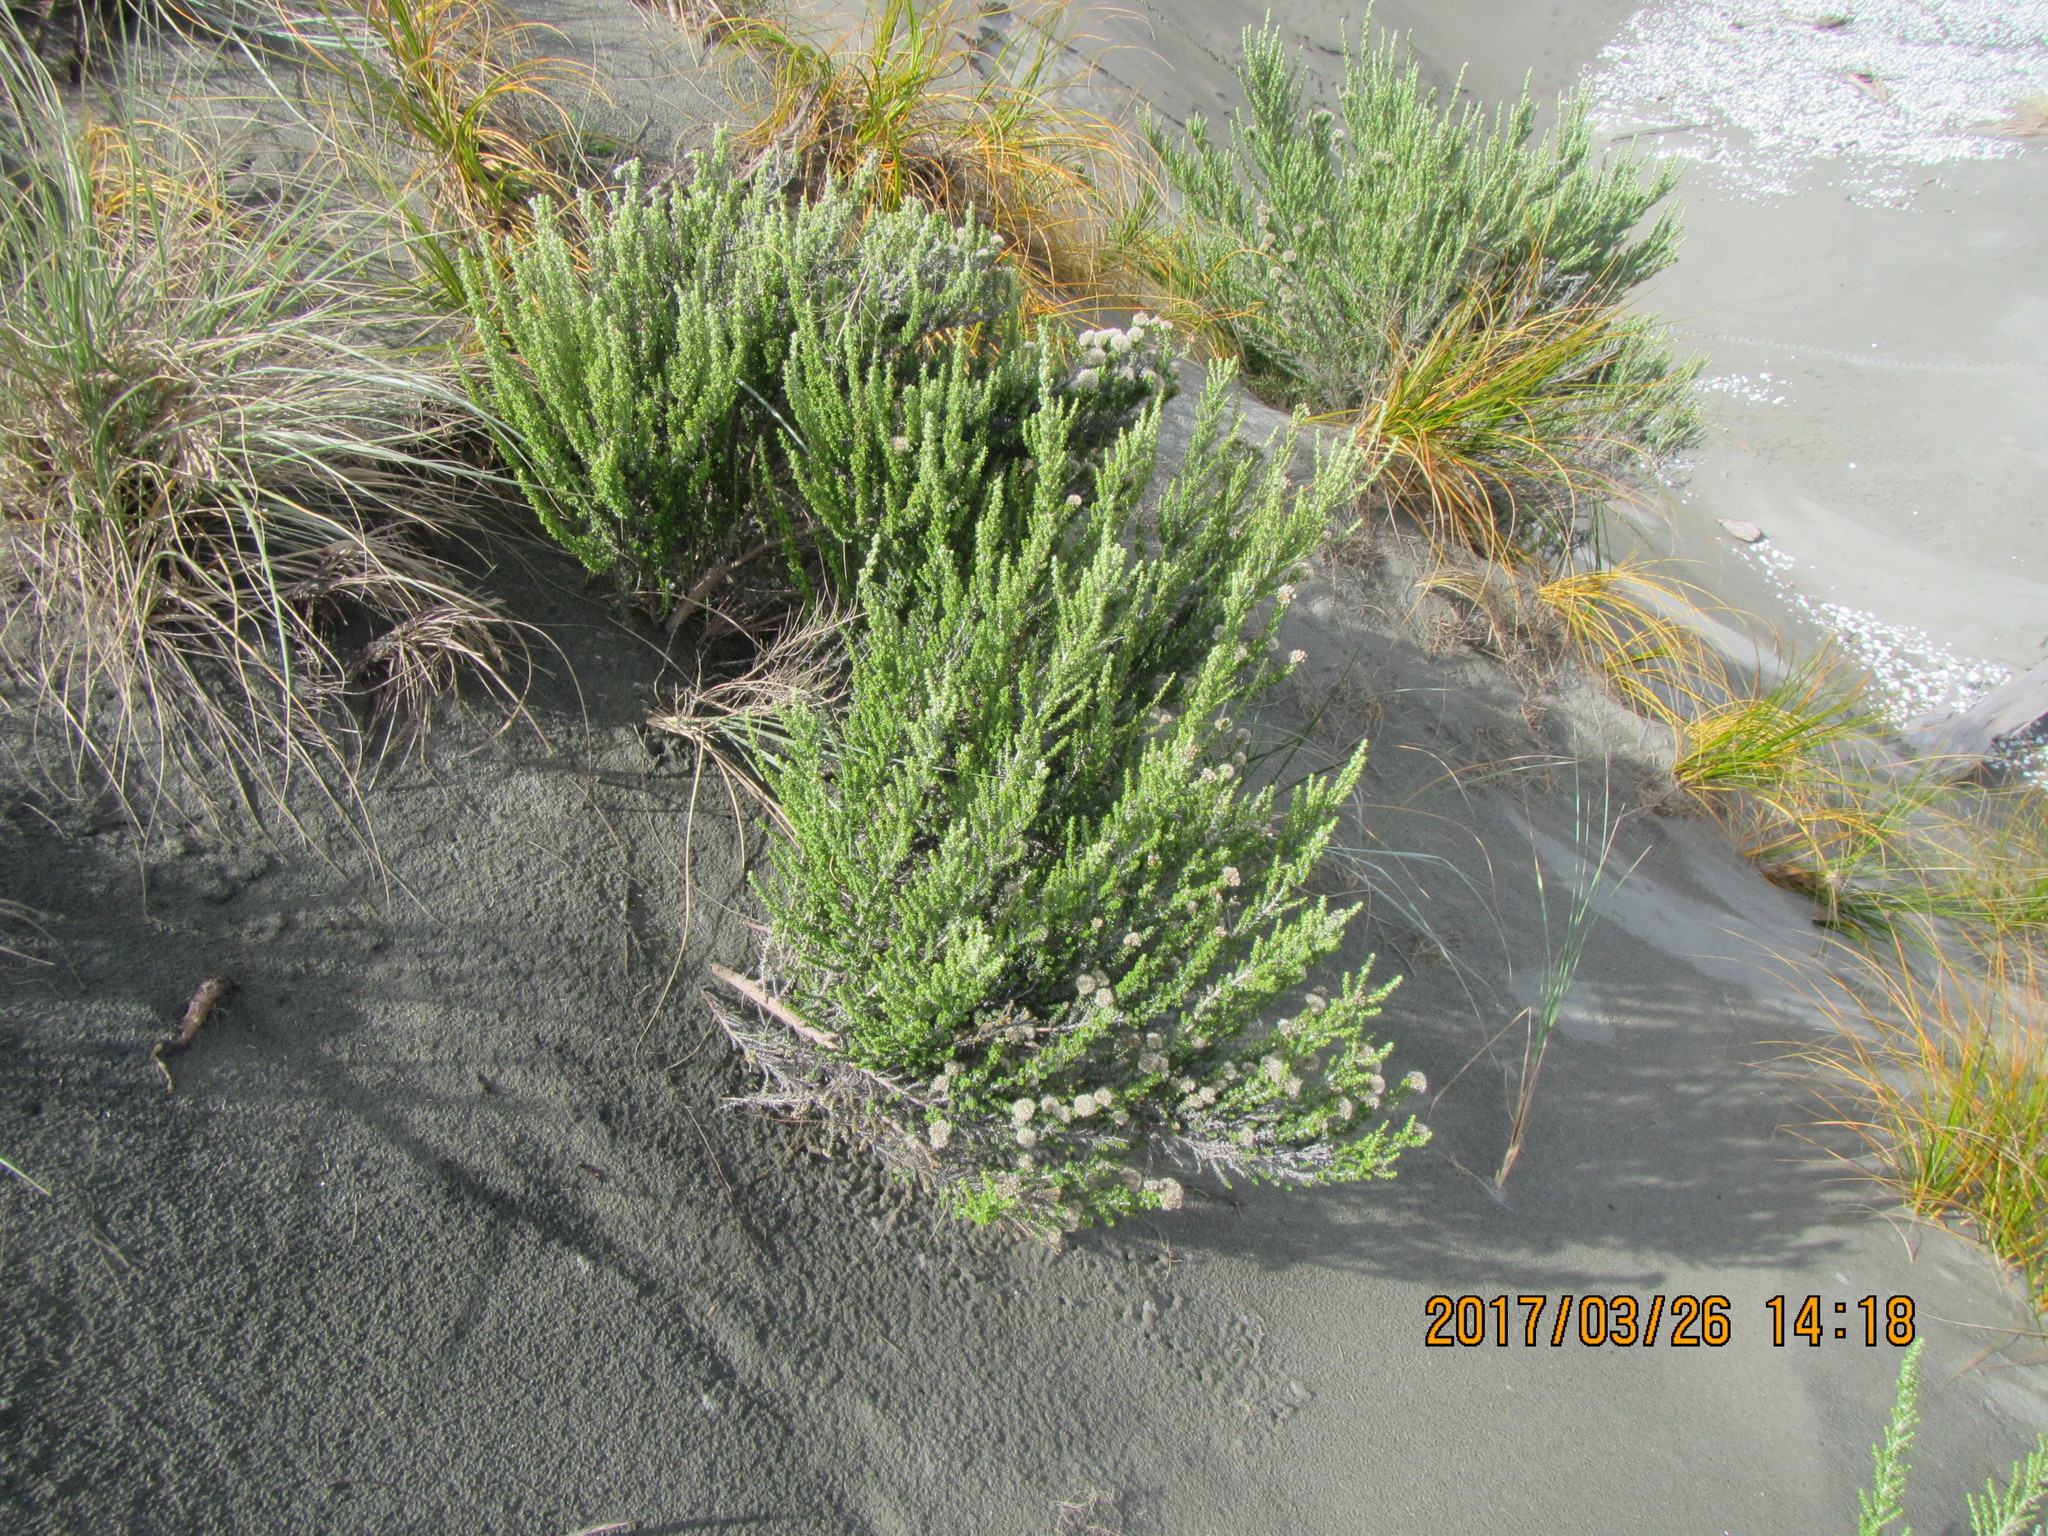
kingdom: Plantae
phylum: Tracheophyta
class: Magnoliopsida
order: Asterales
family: Asteraceae
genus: Ozothamnus
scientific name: Ozothamnus leptophyllus
